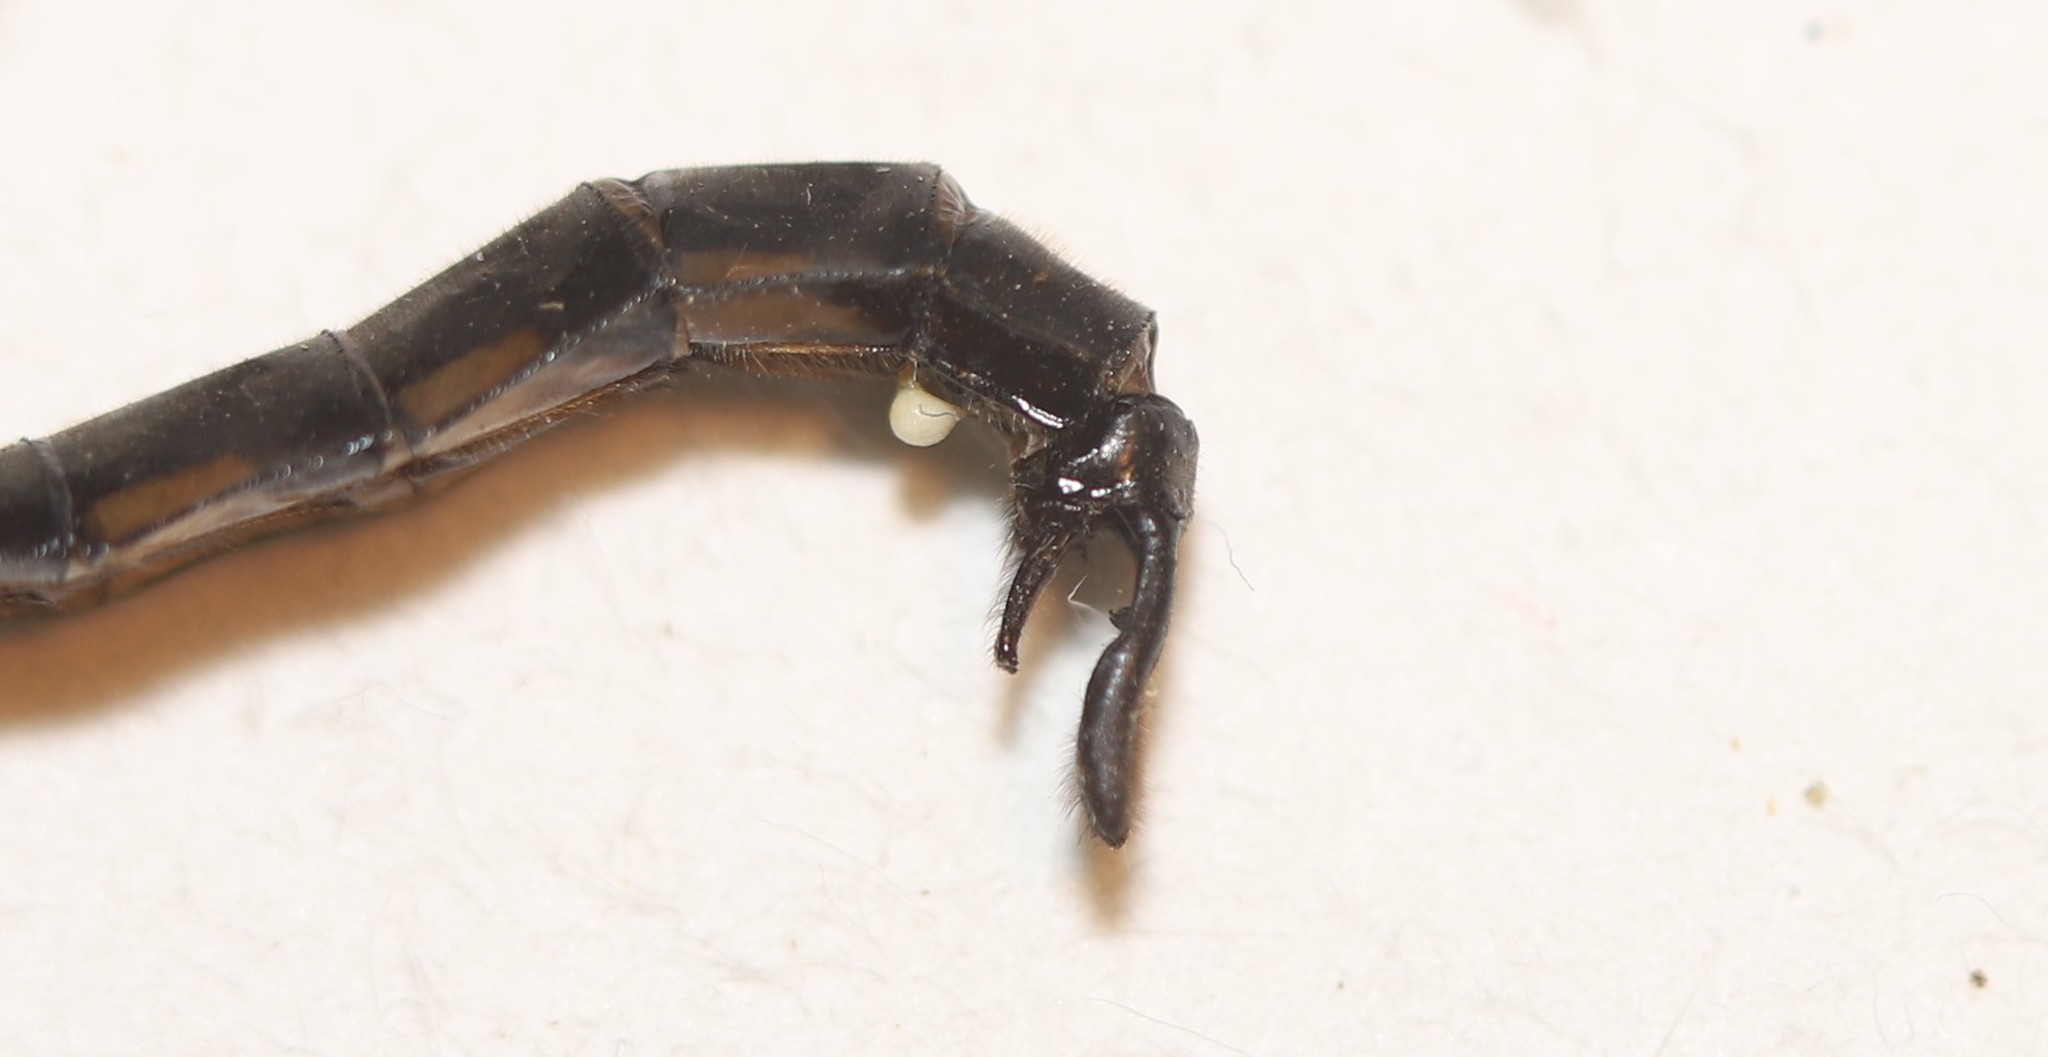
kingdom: Animalia
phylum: Arthropoda
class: Insecta
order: Odonata
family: Corduliidae
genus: Epitheca
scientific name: Epitheca spinigera
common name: Spiny baskettail
